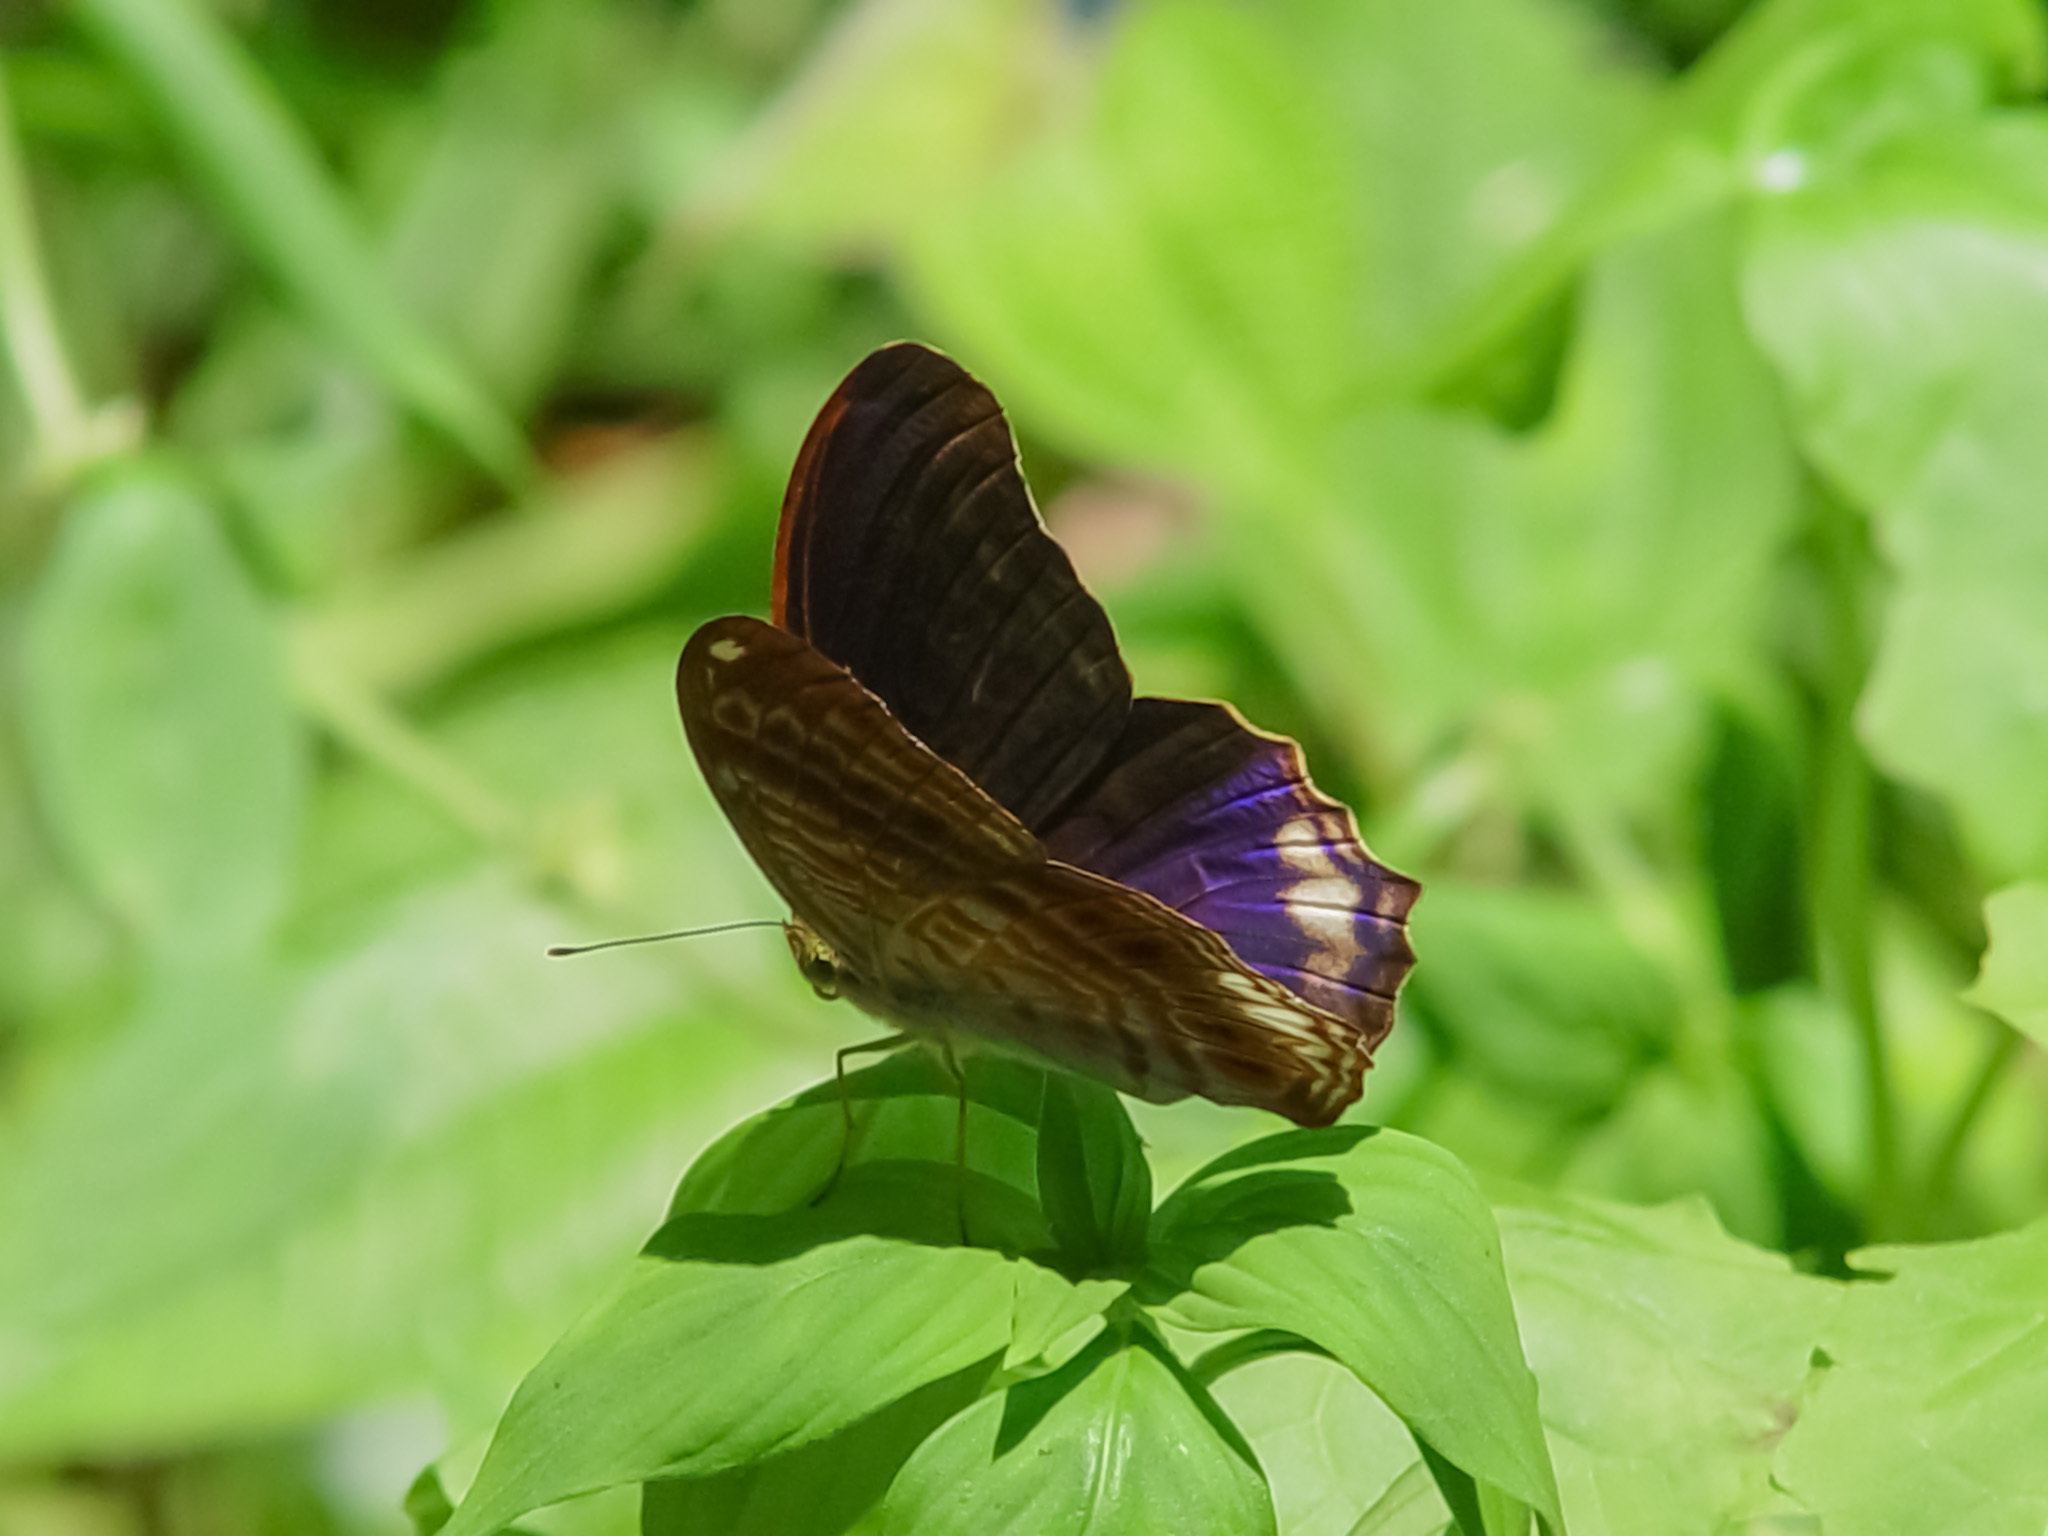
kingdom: Animalia
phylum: Arthropoda
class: Insecta
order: Lepidoptera
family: Nymphalidae
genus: Terinos
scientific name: Terinos terpander
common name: Royal assyrian
